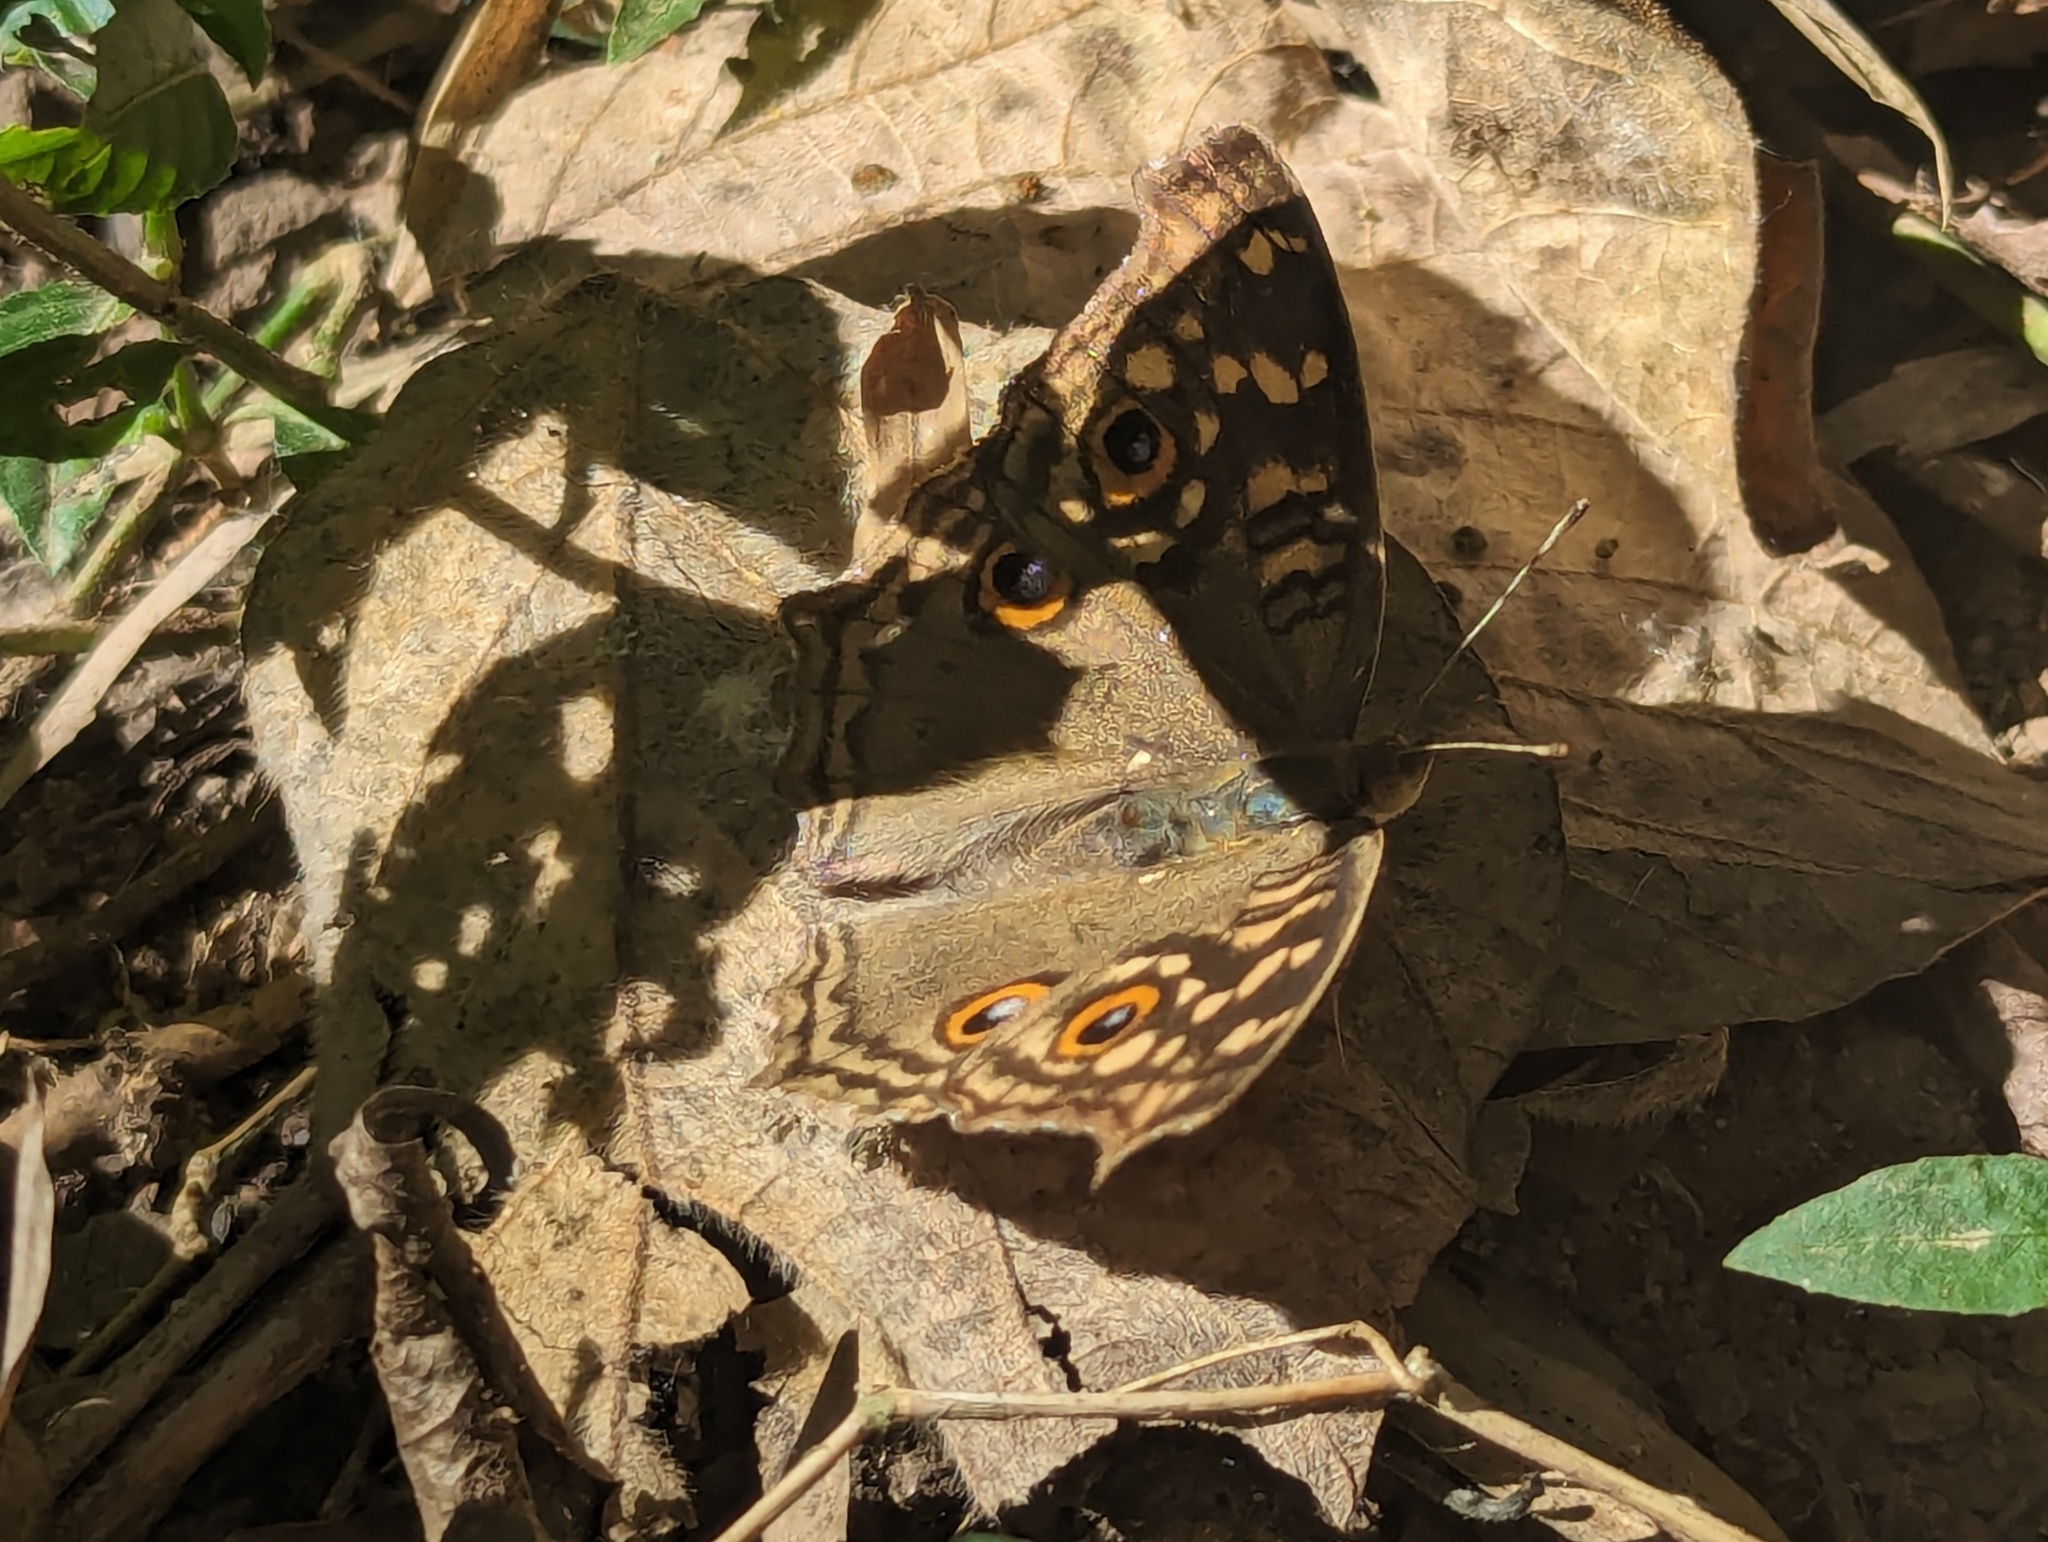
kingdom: Animalia
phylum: Arthropoda
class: Insecta
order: Lepidoptera
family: Nymphalidae
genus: Junonia
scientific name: Junonia lemonias
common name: Lemon pansy
